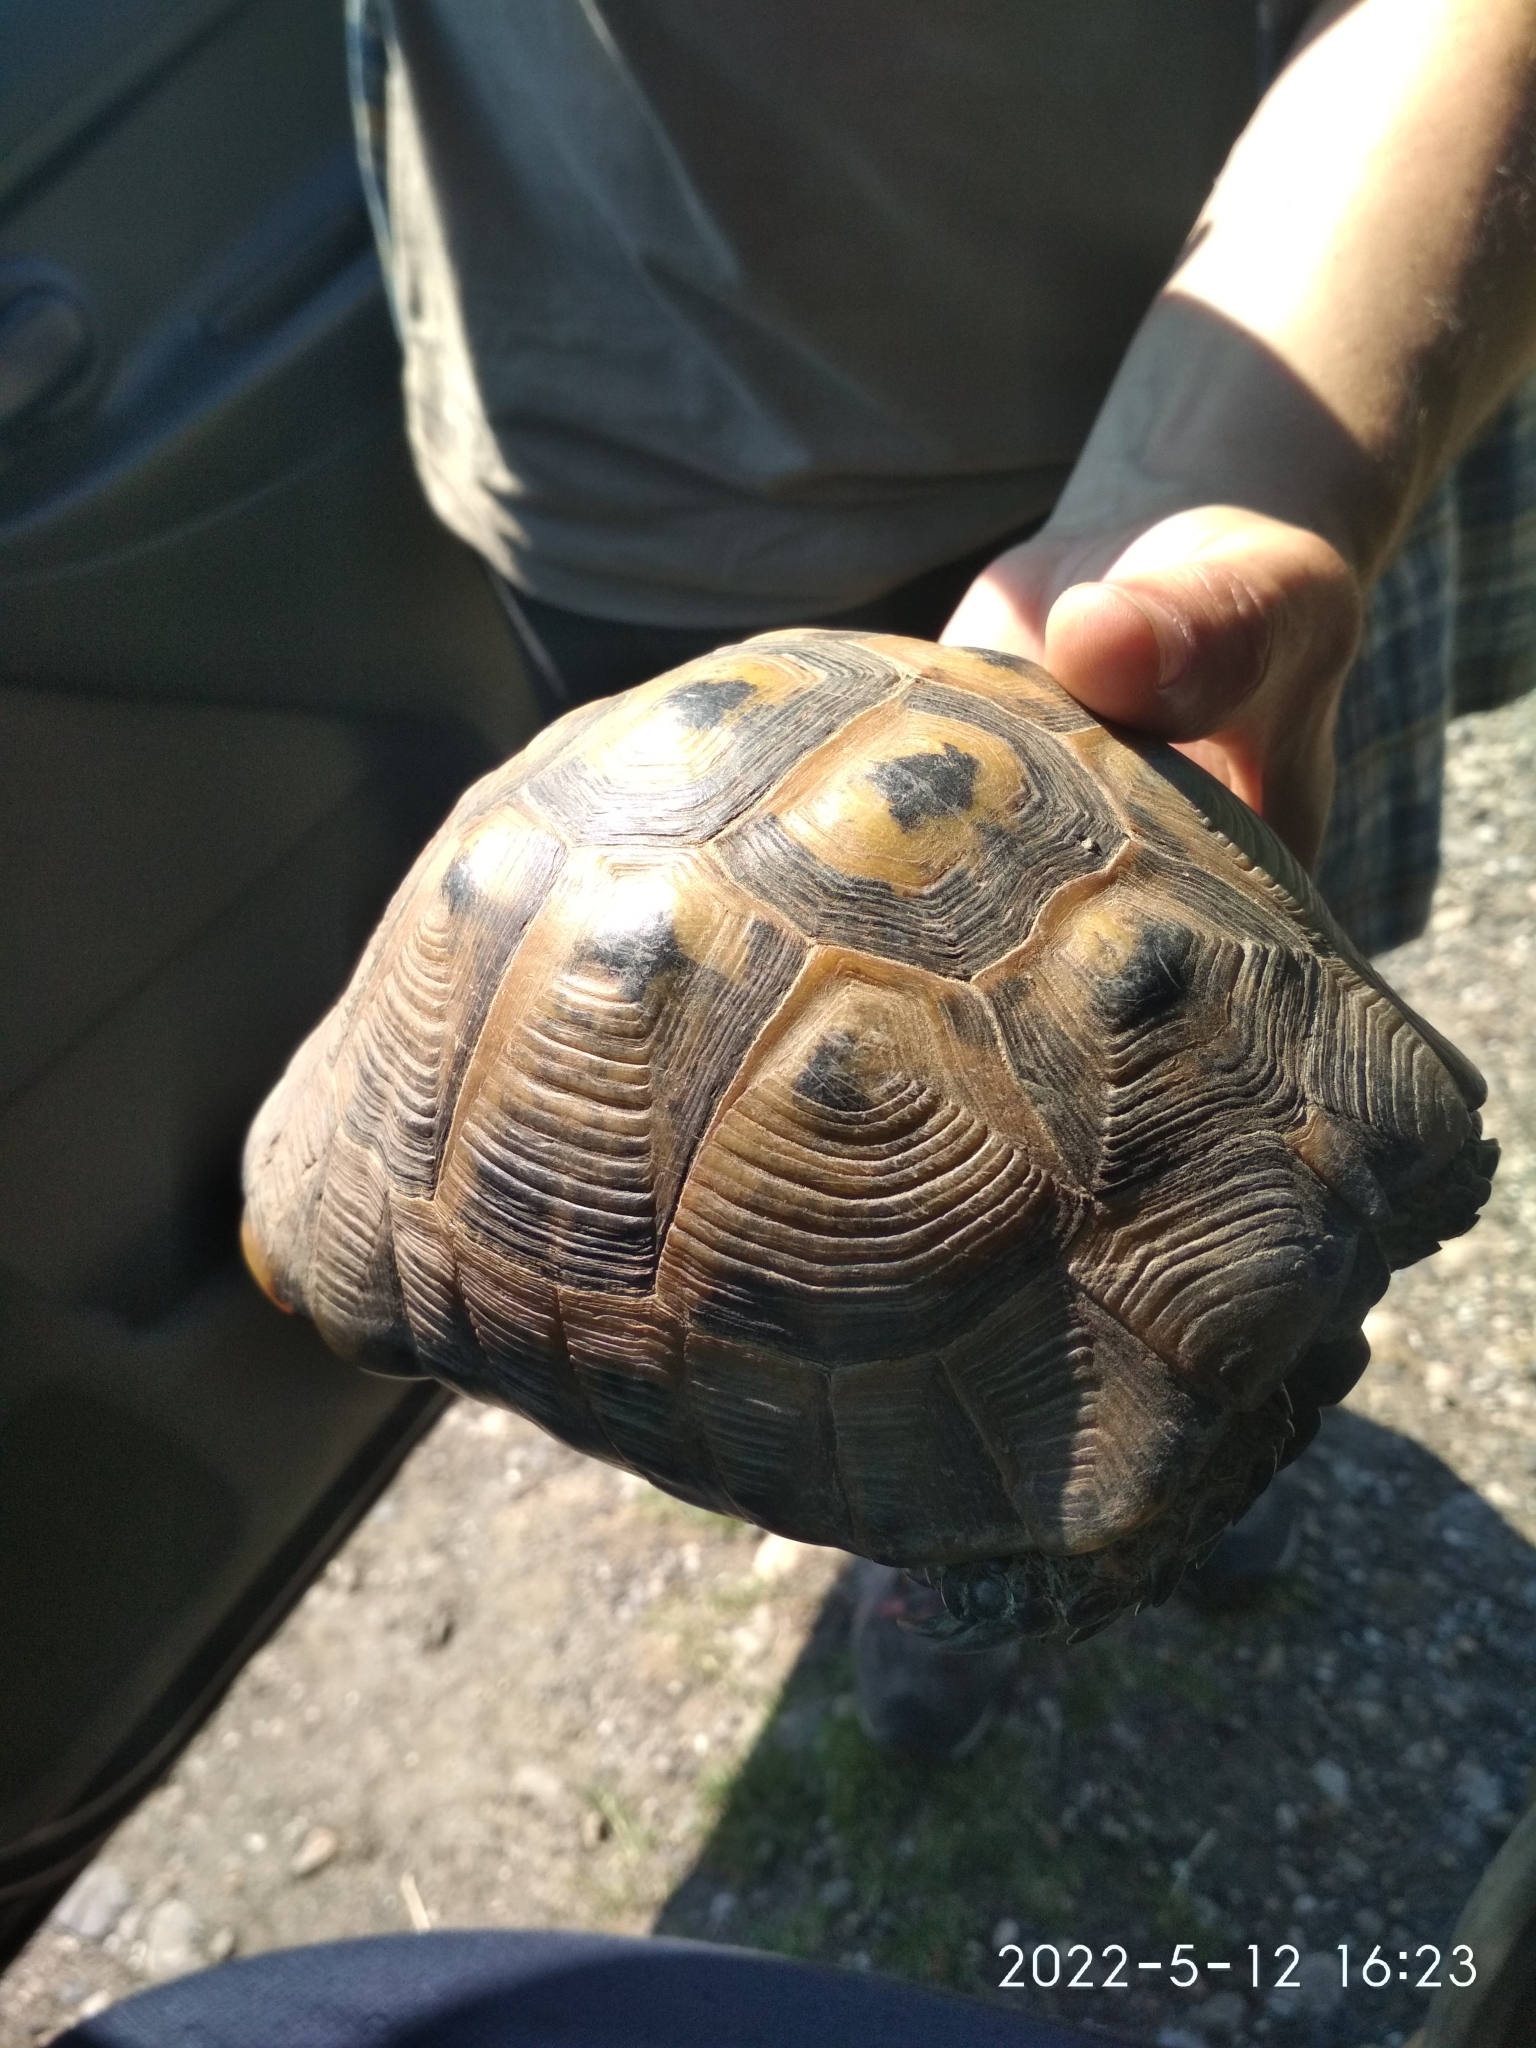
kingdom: Animalia
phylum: Chordata
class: Testudines
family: Testudinidae
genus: Testudo
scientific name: Testudo graeca
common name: Common tortoise
